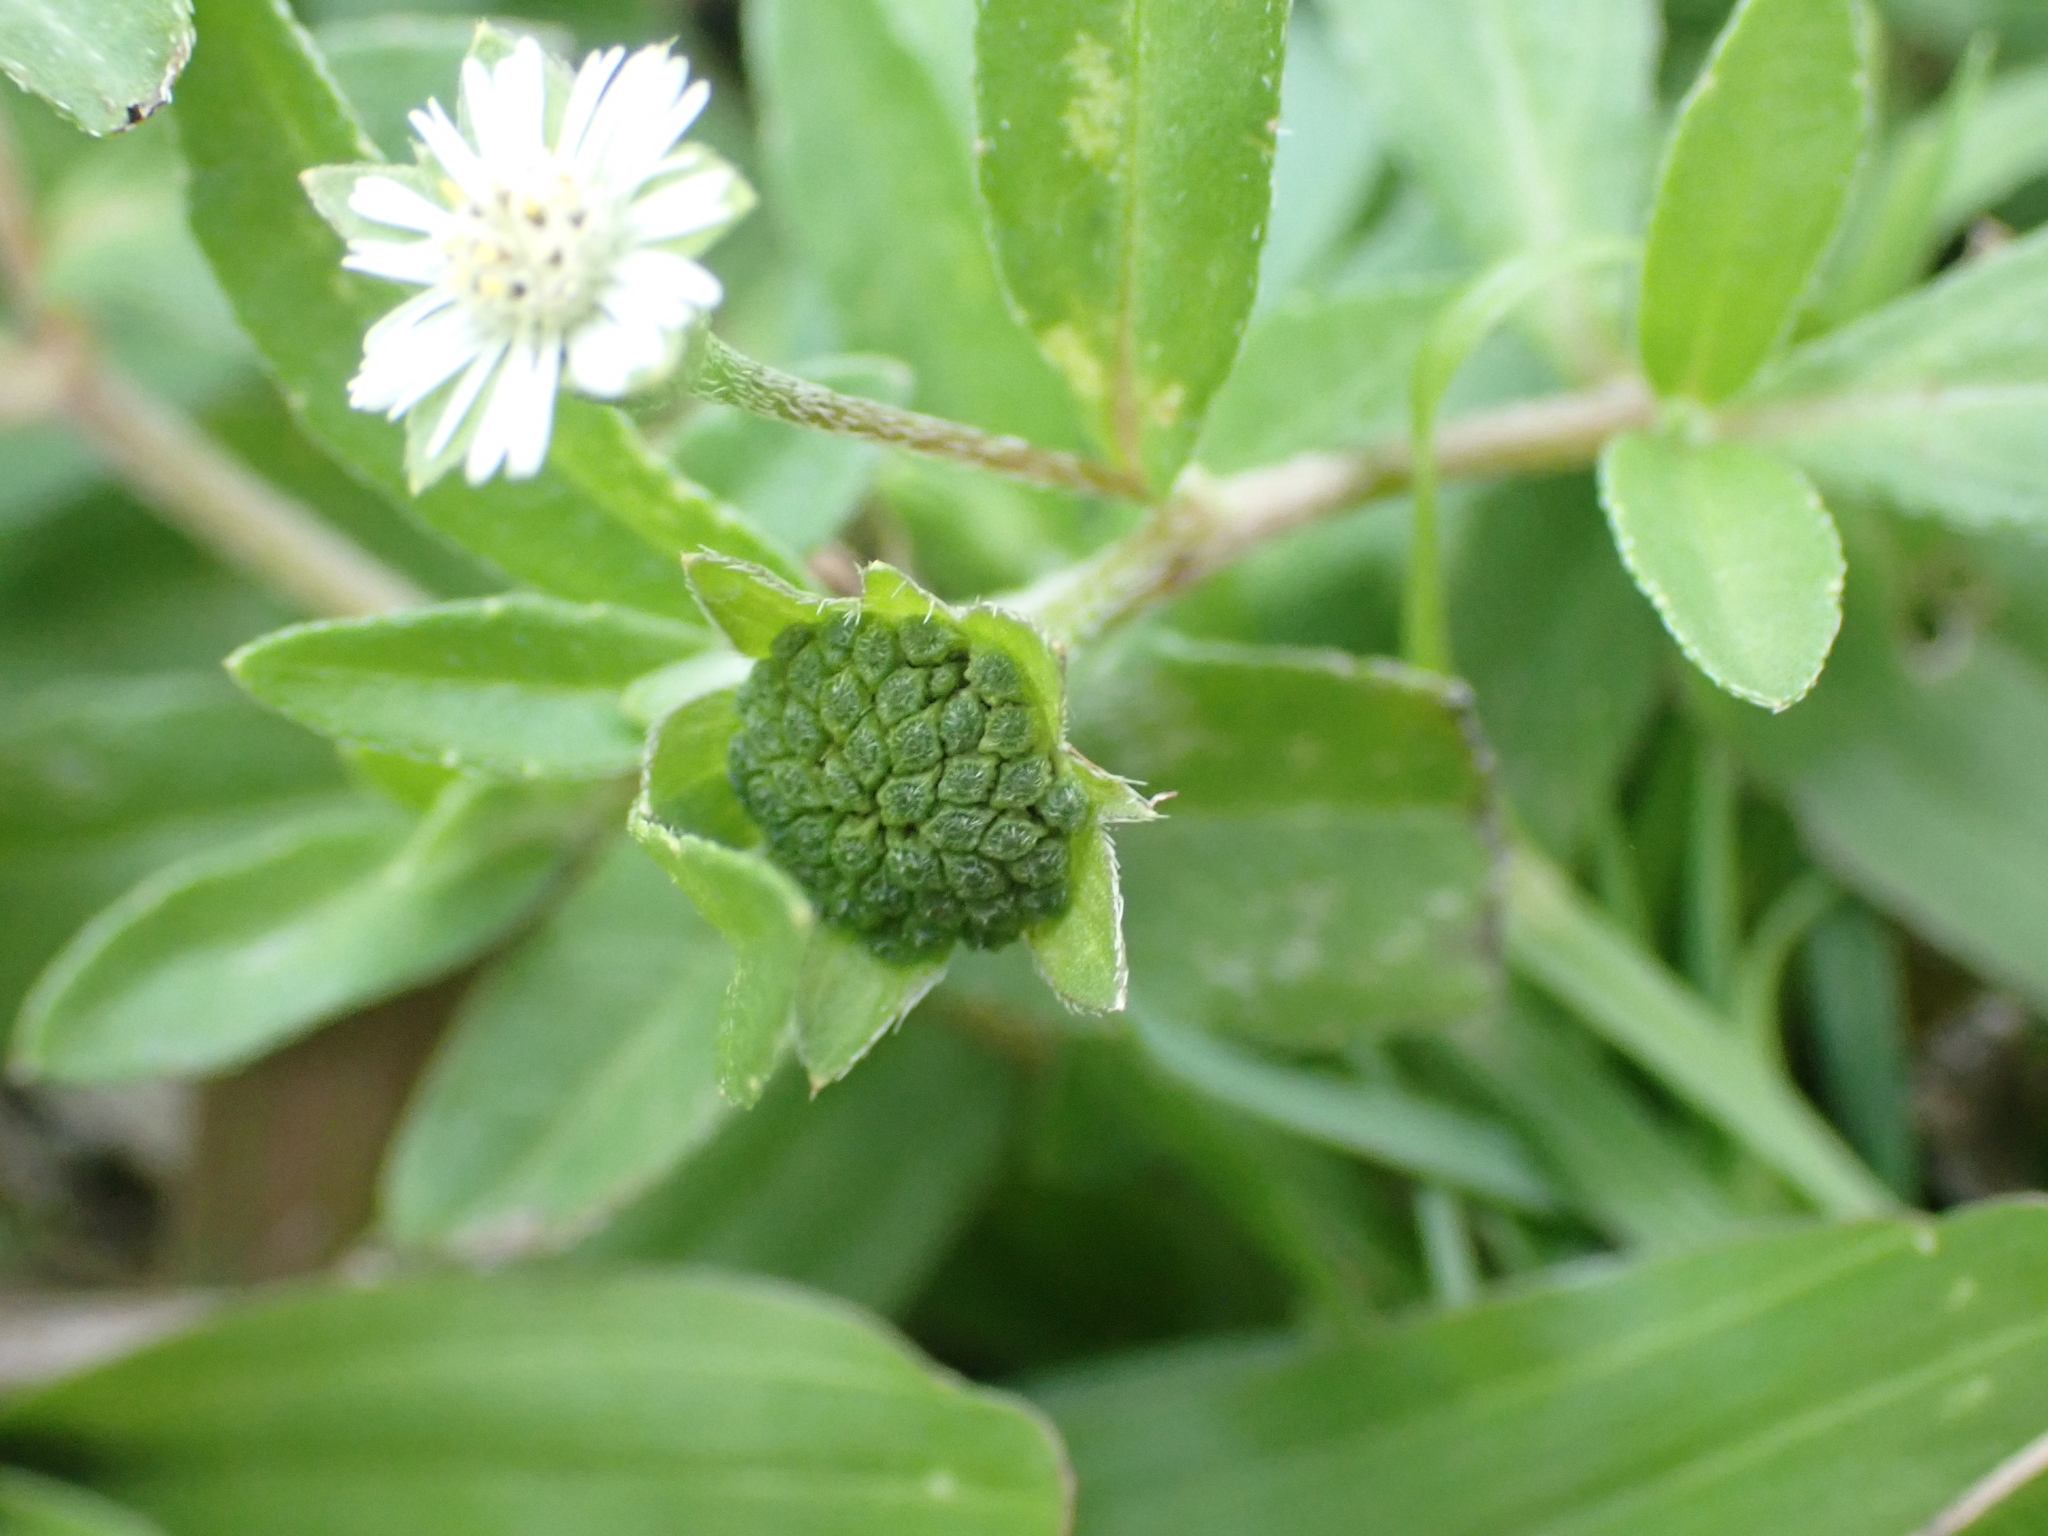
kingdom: Plantae
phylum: Tracheophyta
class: Magnoliopsida
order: Asterales
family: Asteraceae
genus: Eclipta
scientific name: Eclipta prostrata
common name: False daisy
